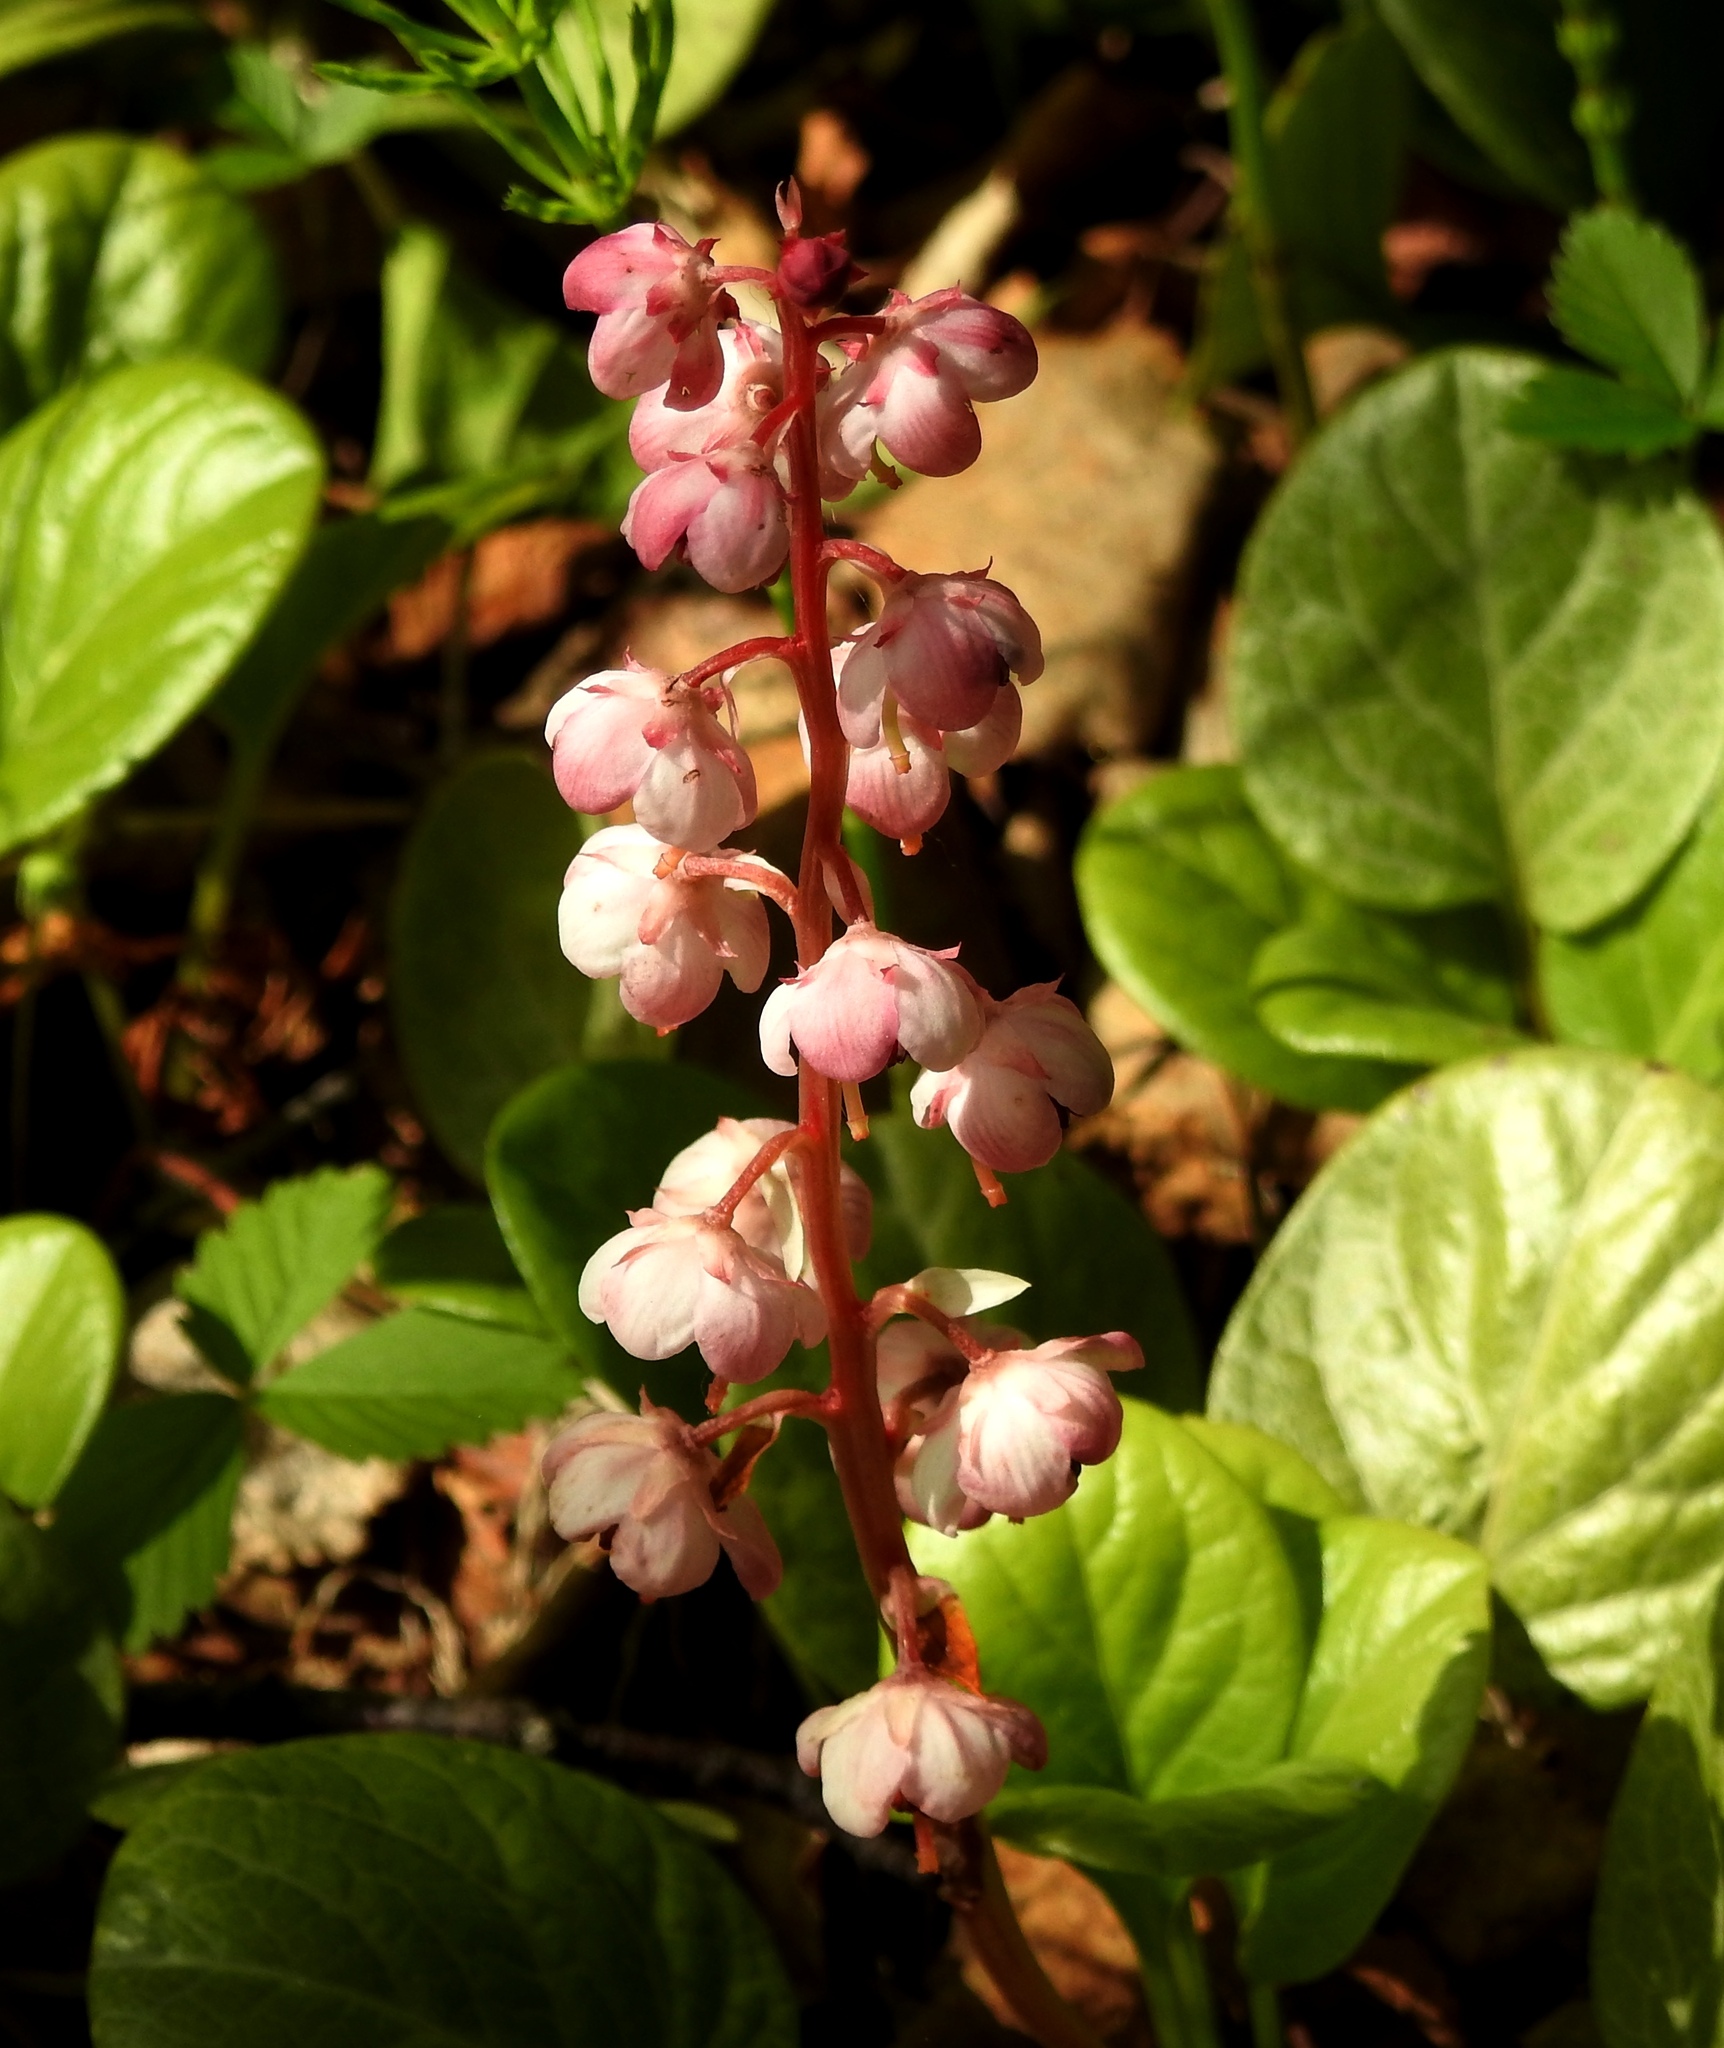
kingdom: Plantae
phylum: Tracheophyta
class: Magnoliopsida
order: Ericales
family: Ericaceae
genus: Pyrola
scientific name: Pyrola asarifolia
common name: Bog wintergreen
